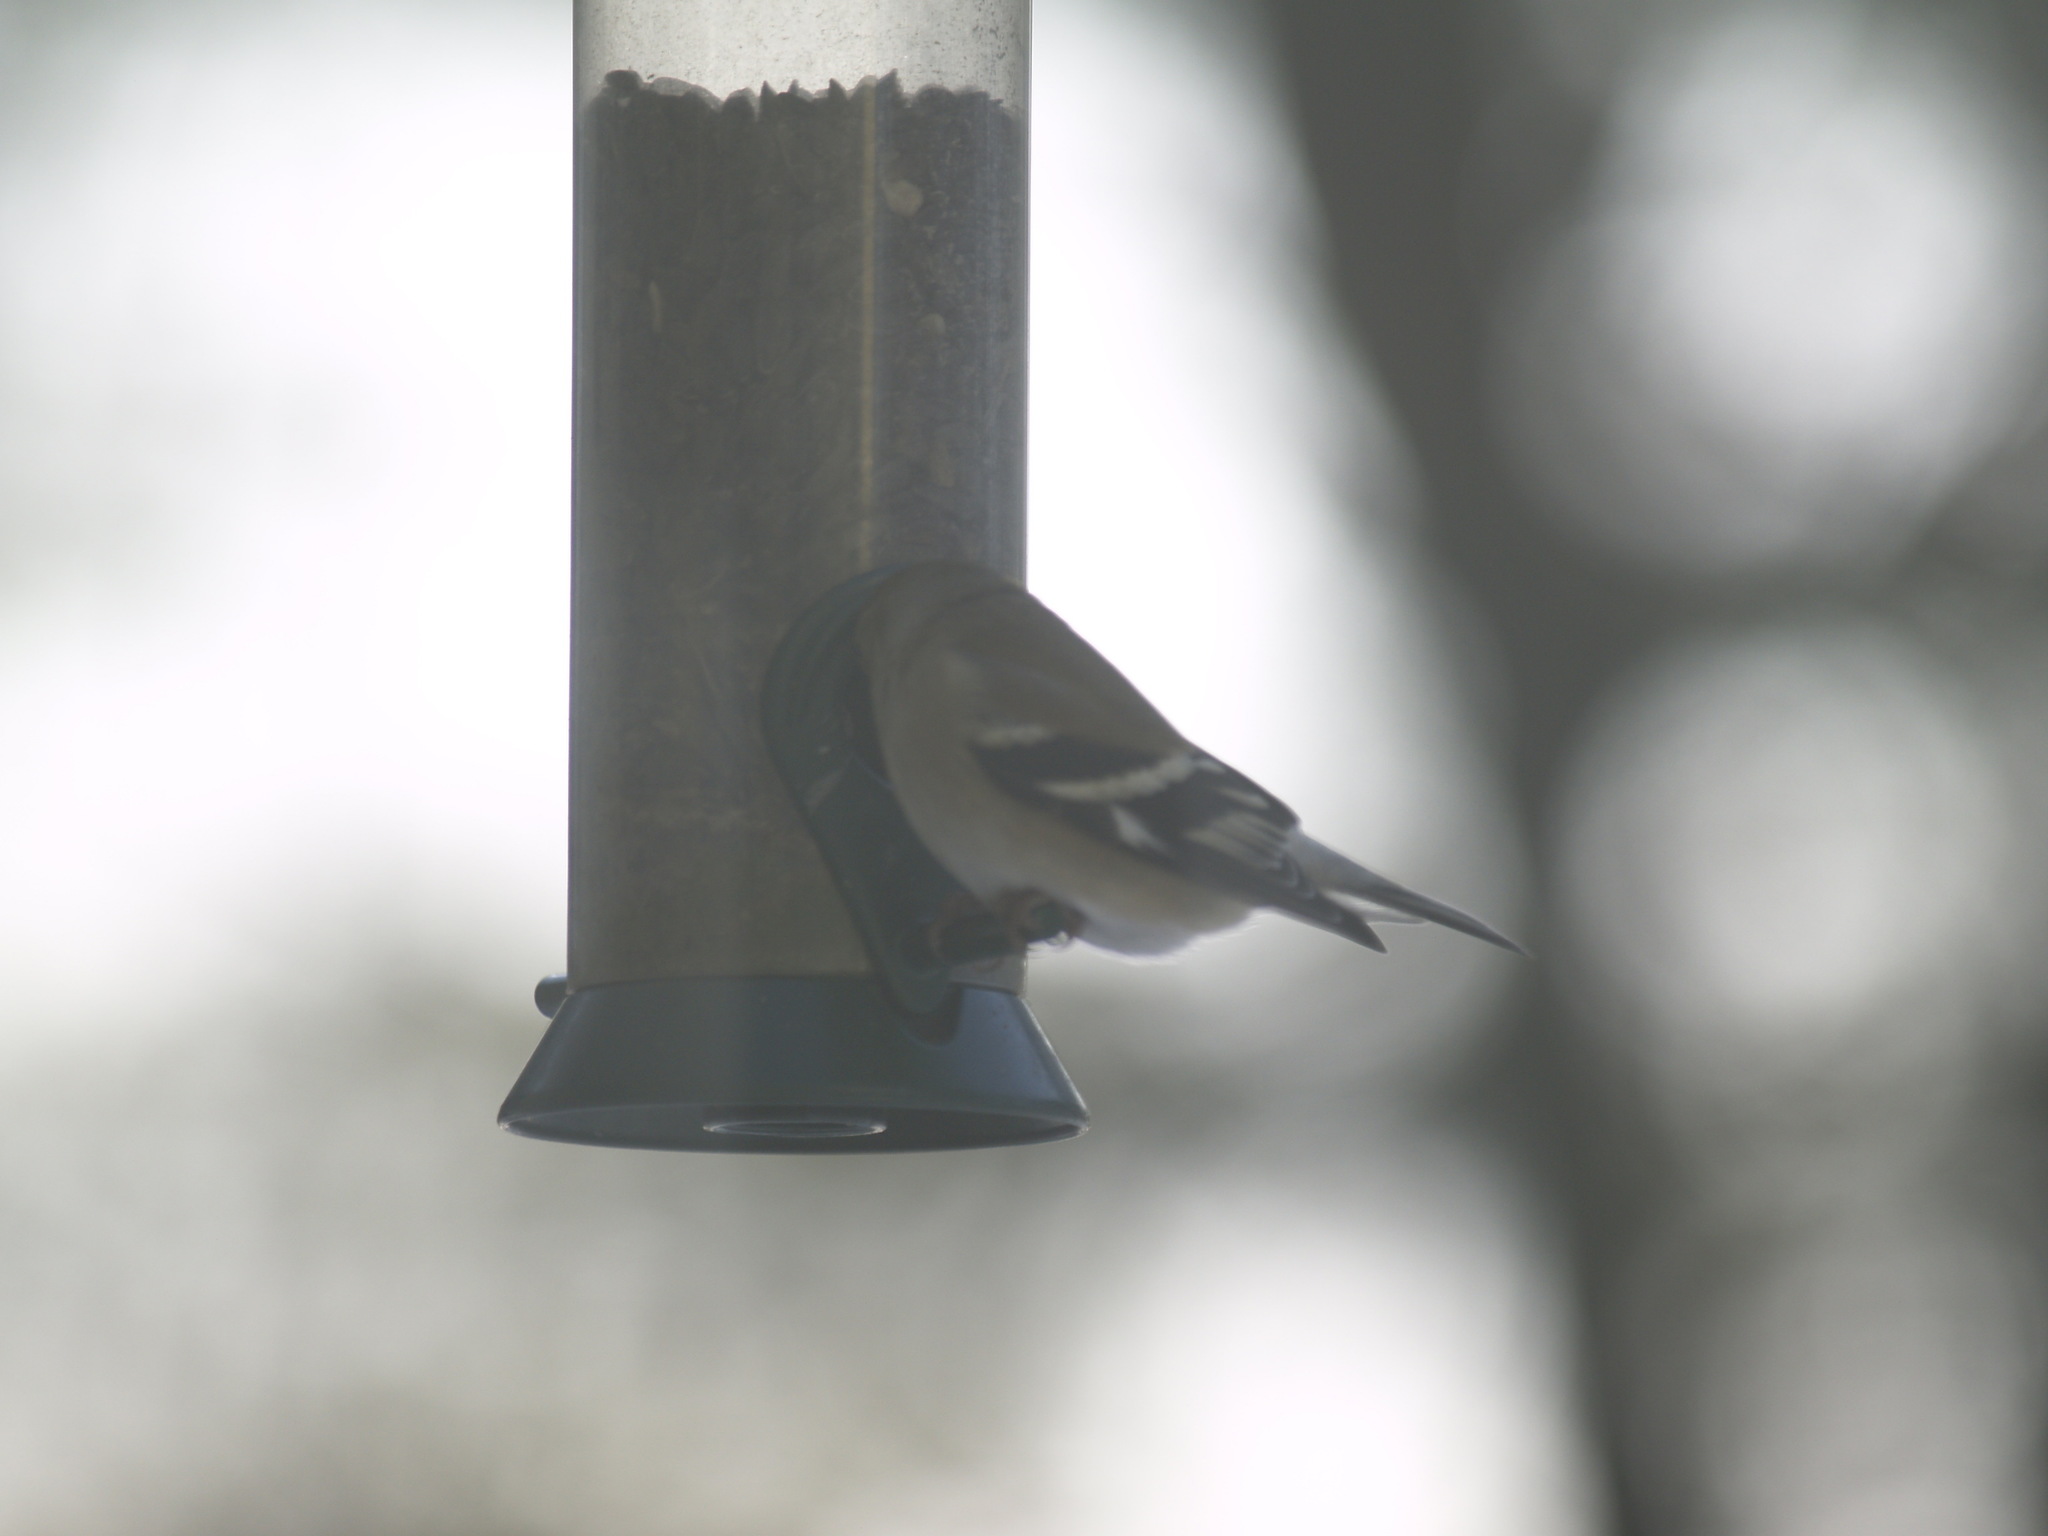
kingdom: Animalia
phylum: Chordata
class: Aves
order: Passeriformes
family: Fringillidae
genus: Spinus
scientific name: Spinus tristis
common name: American goldfinch
